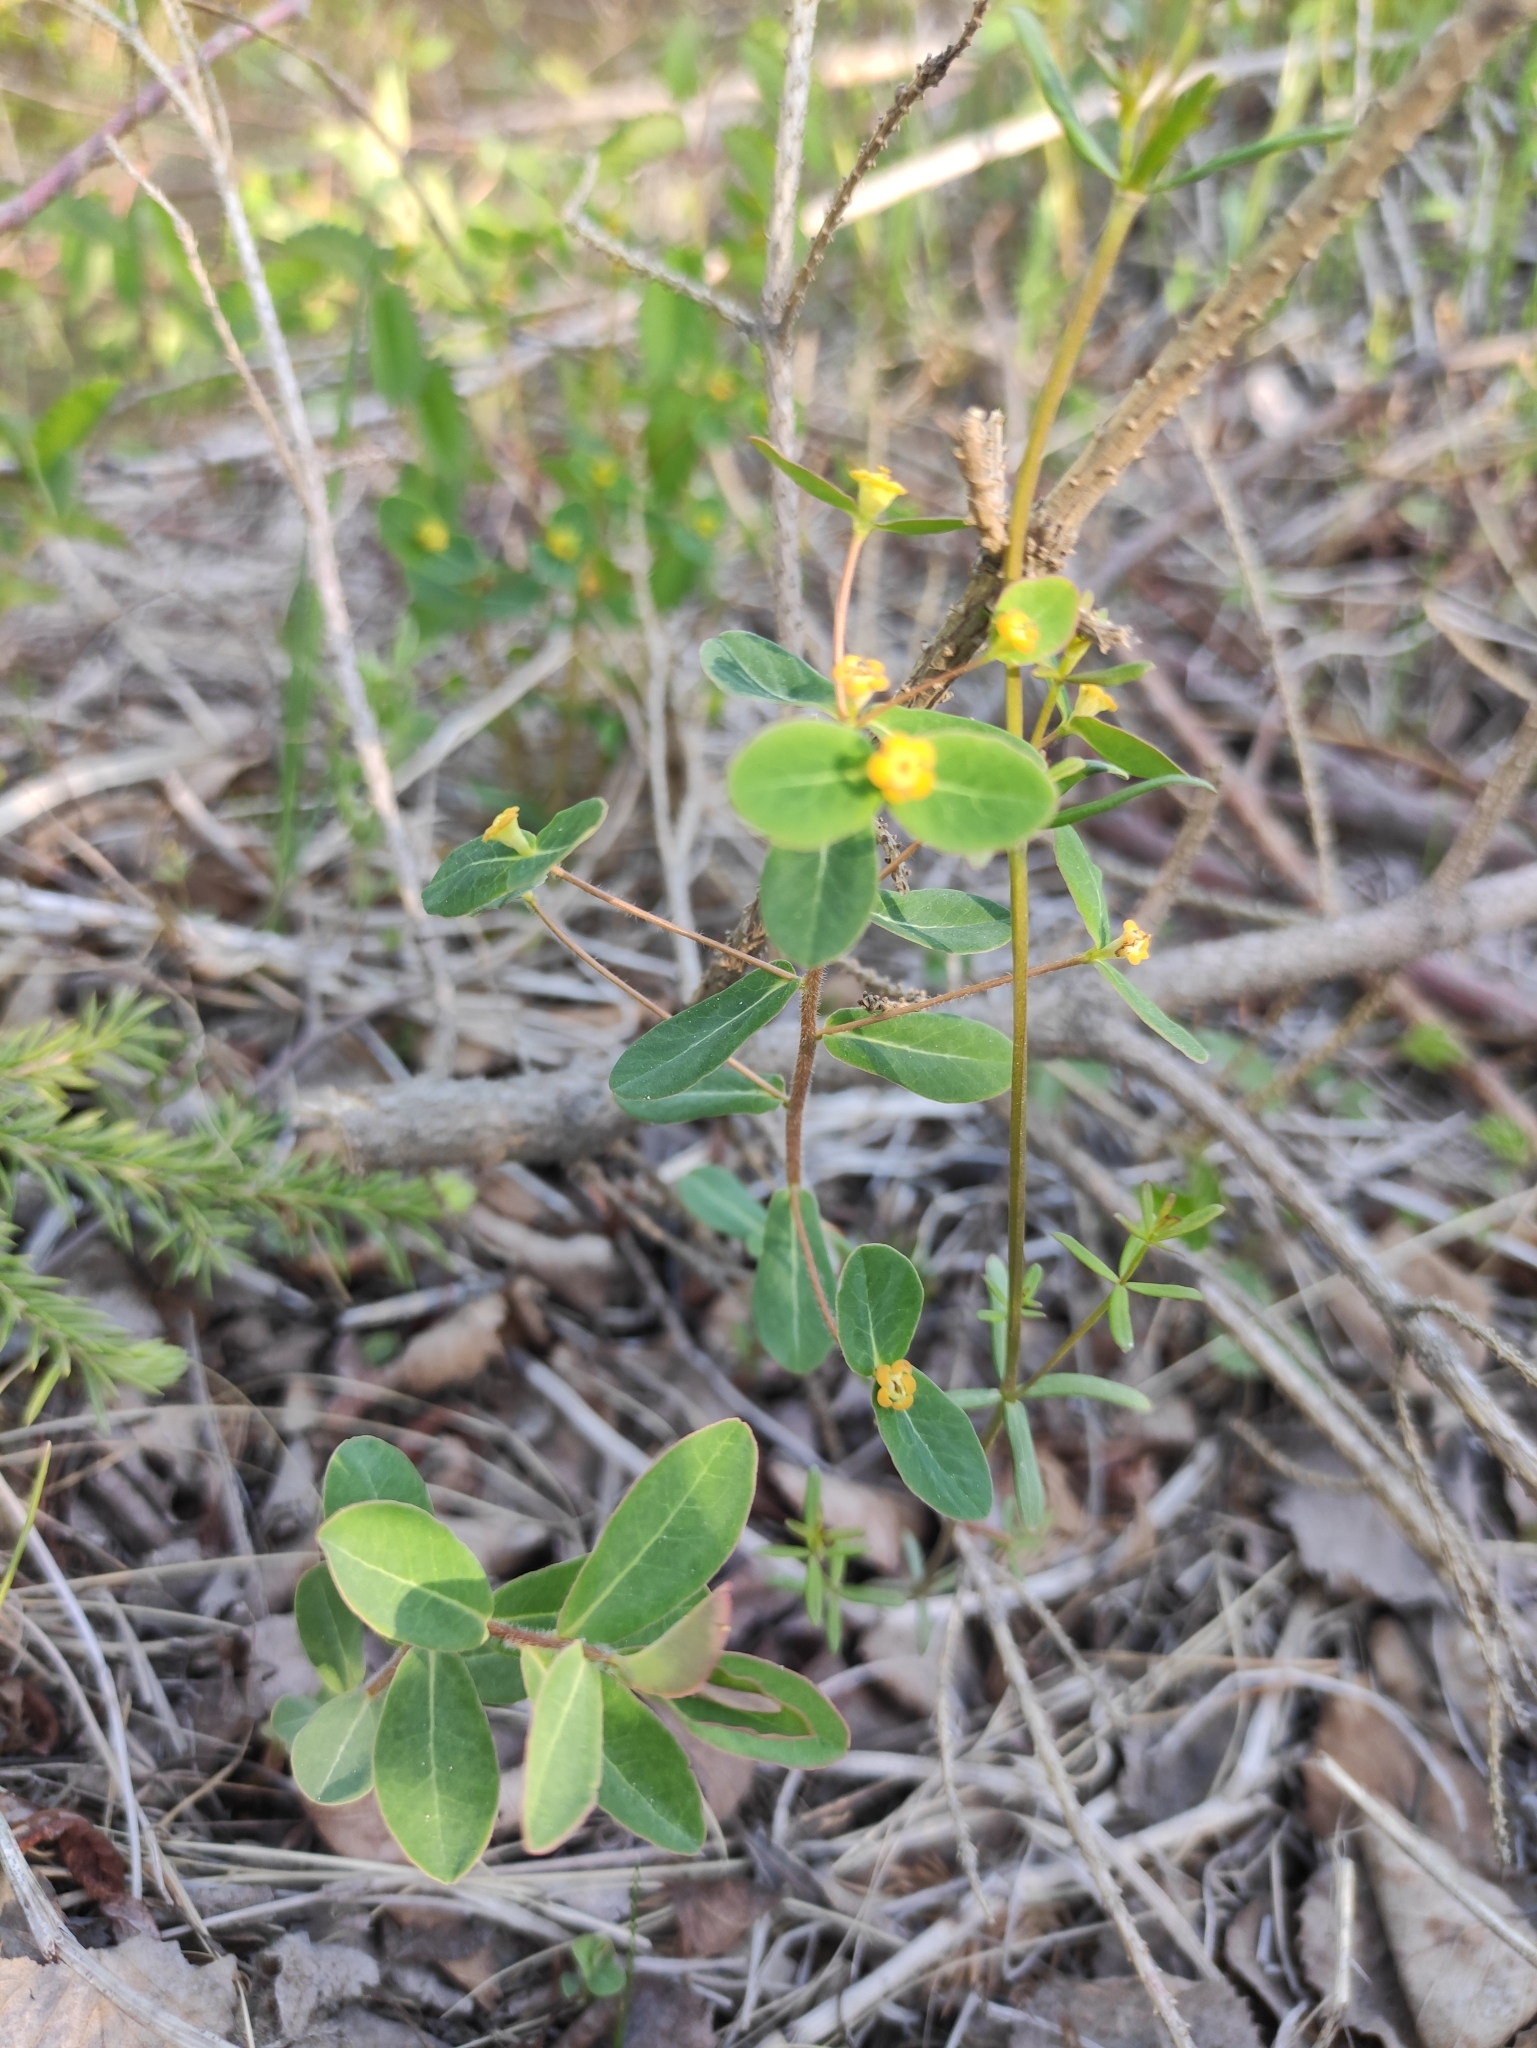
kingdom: Plantae
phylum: Tracheophyta
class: Magnoliopsida
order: Malpighiales
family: Euphorbiaceae
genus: Euphorbia
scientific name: Euphorbia jenisseiensis
